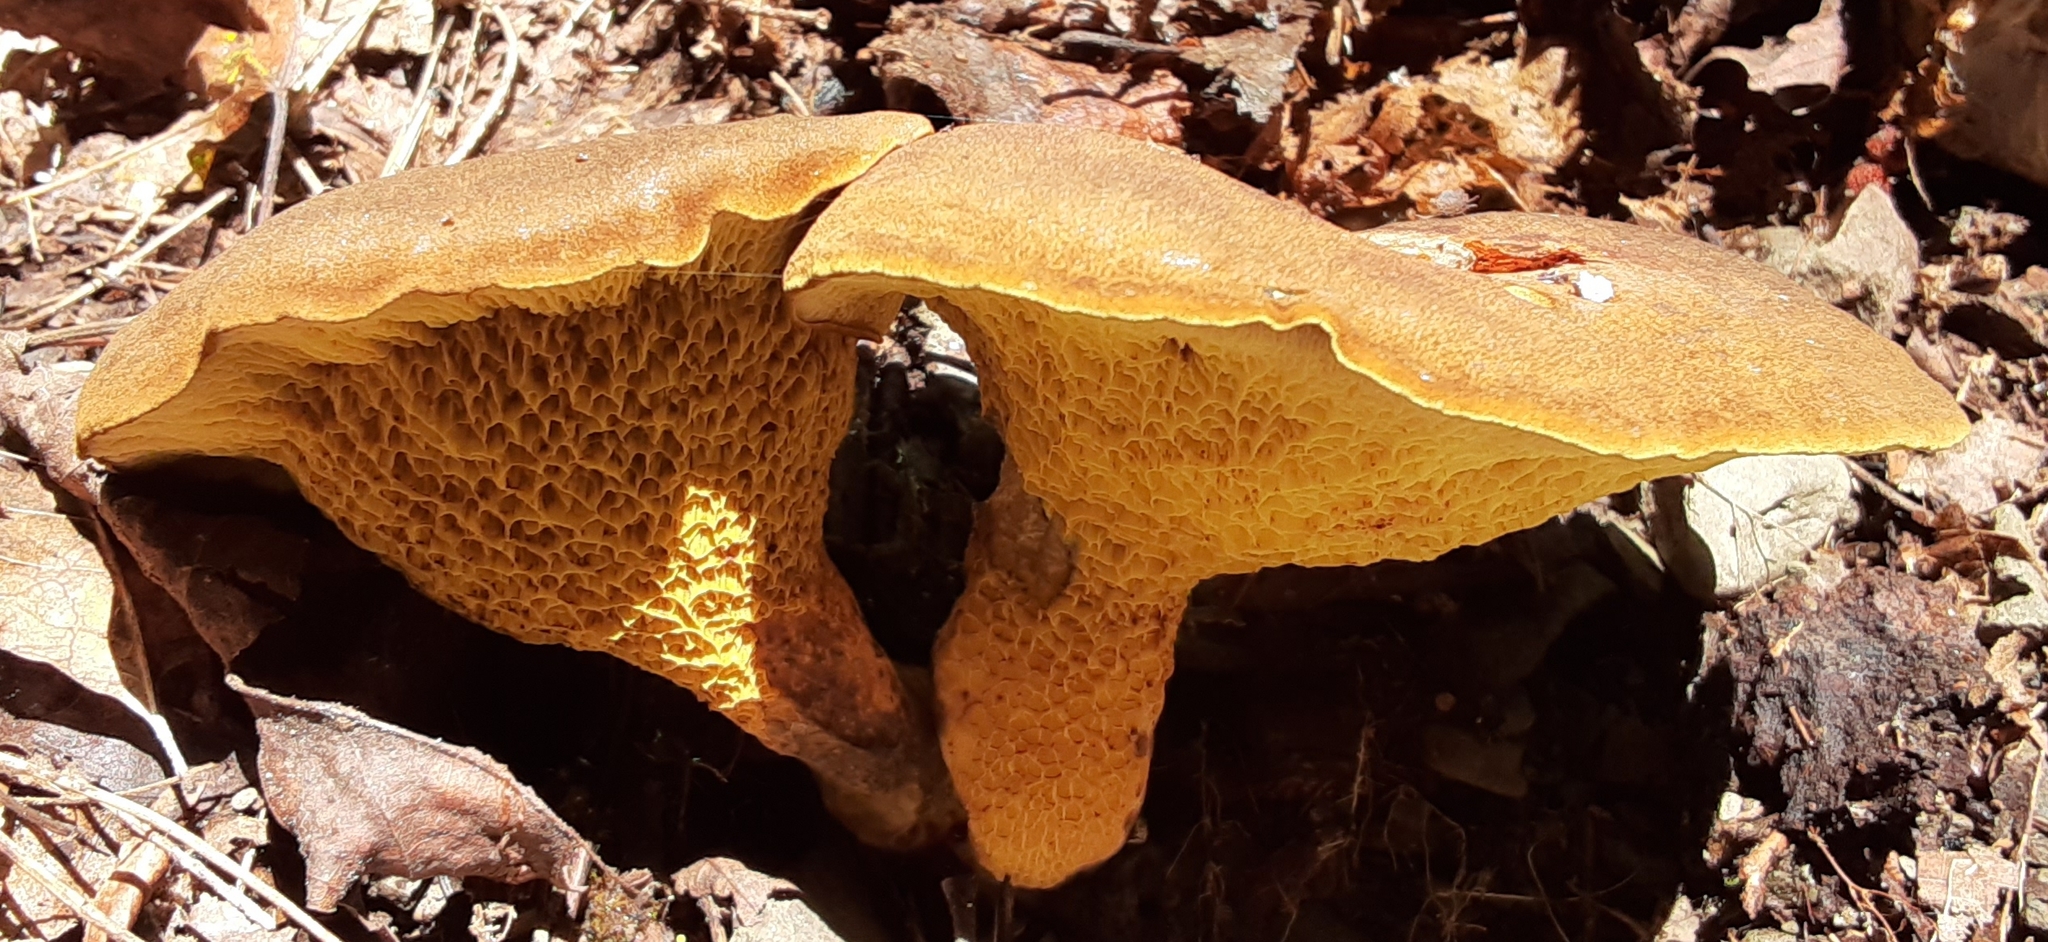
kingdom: Fungi
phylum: Basidiomycota
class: Agaricomycetes
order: Boletales
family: Boletinellaceae
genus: Boletinellus
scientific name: Boletinellus merulioides
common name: Ash tree bolete
